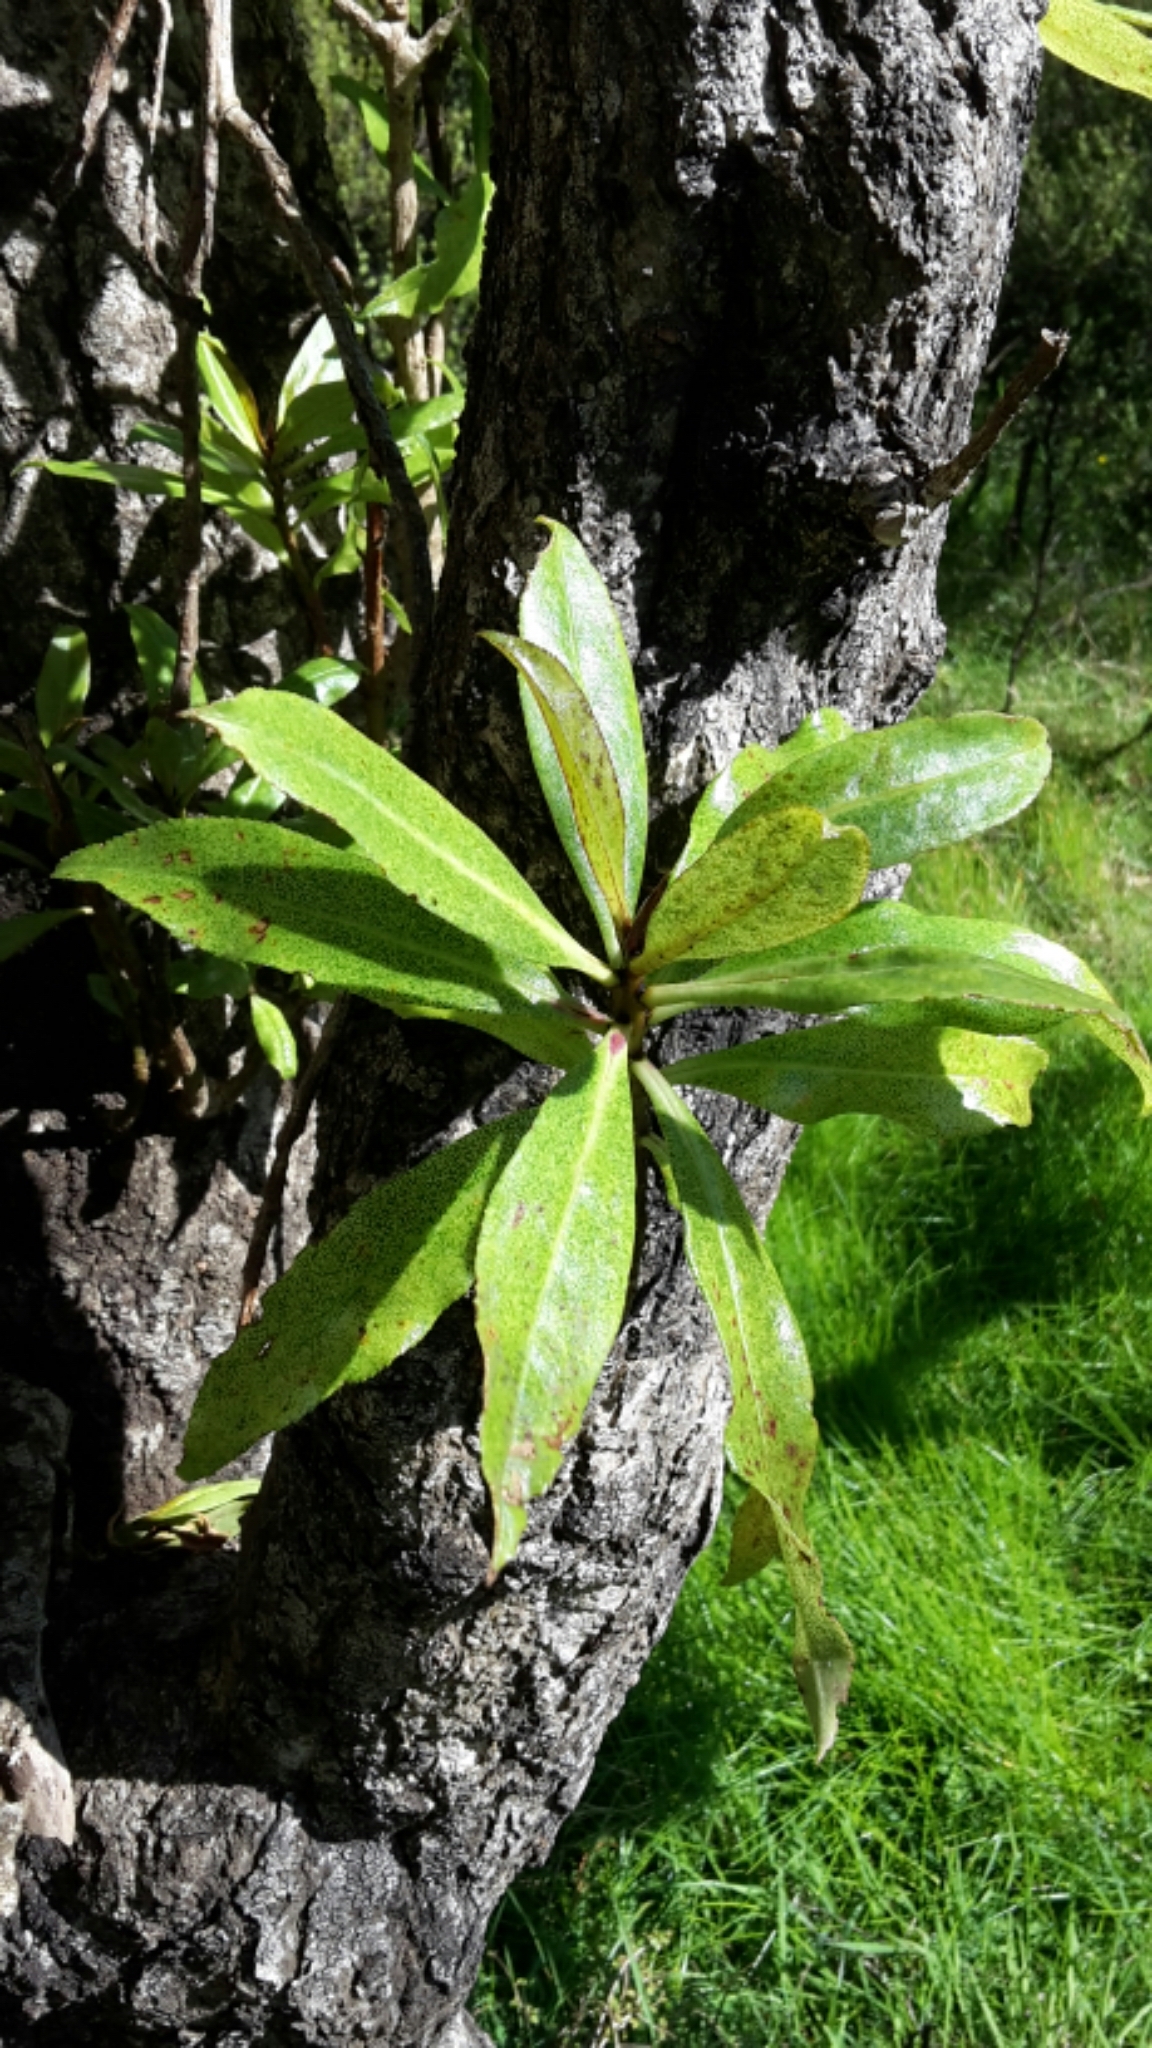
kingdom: Plantae
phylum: Tracheophyta
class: Magnoliopsida
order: Lamiales
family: Scrophulariaceae
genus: Myoporum
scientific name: Myoporum laetum
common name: Ngaio tree
